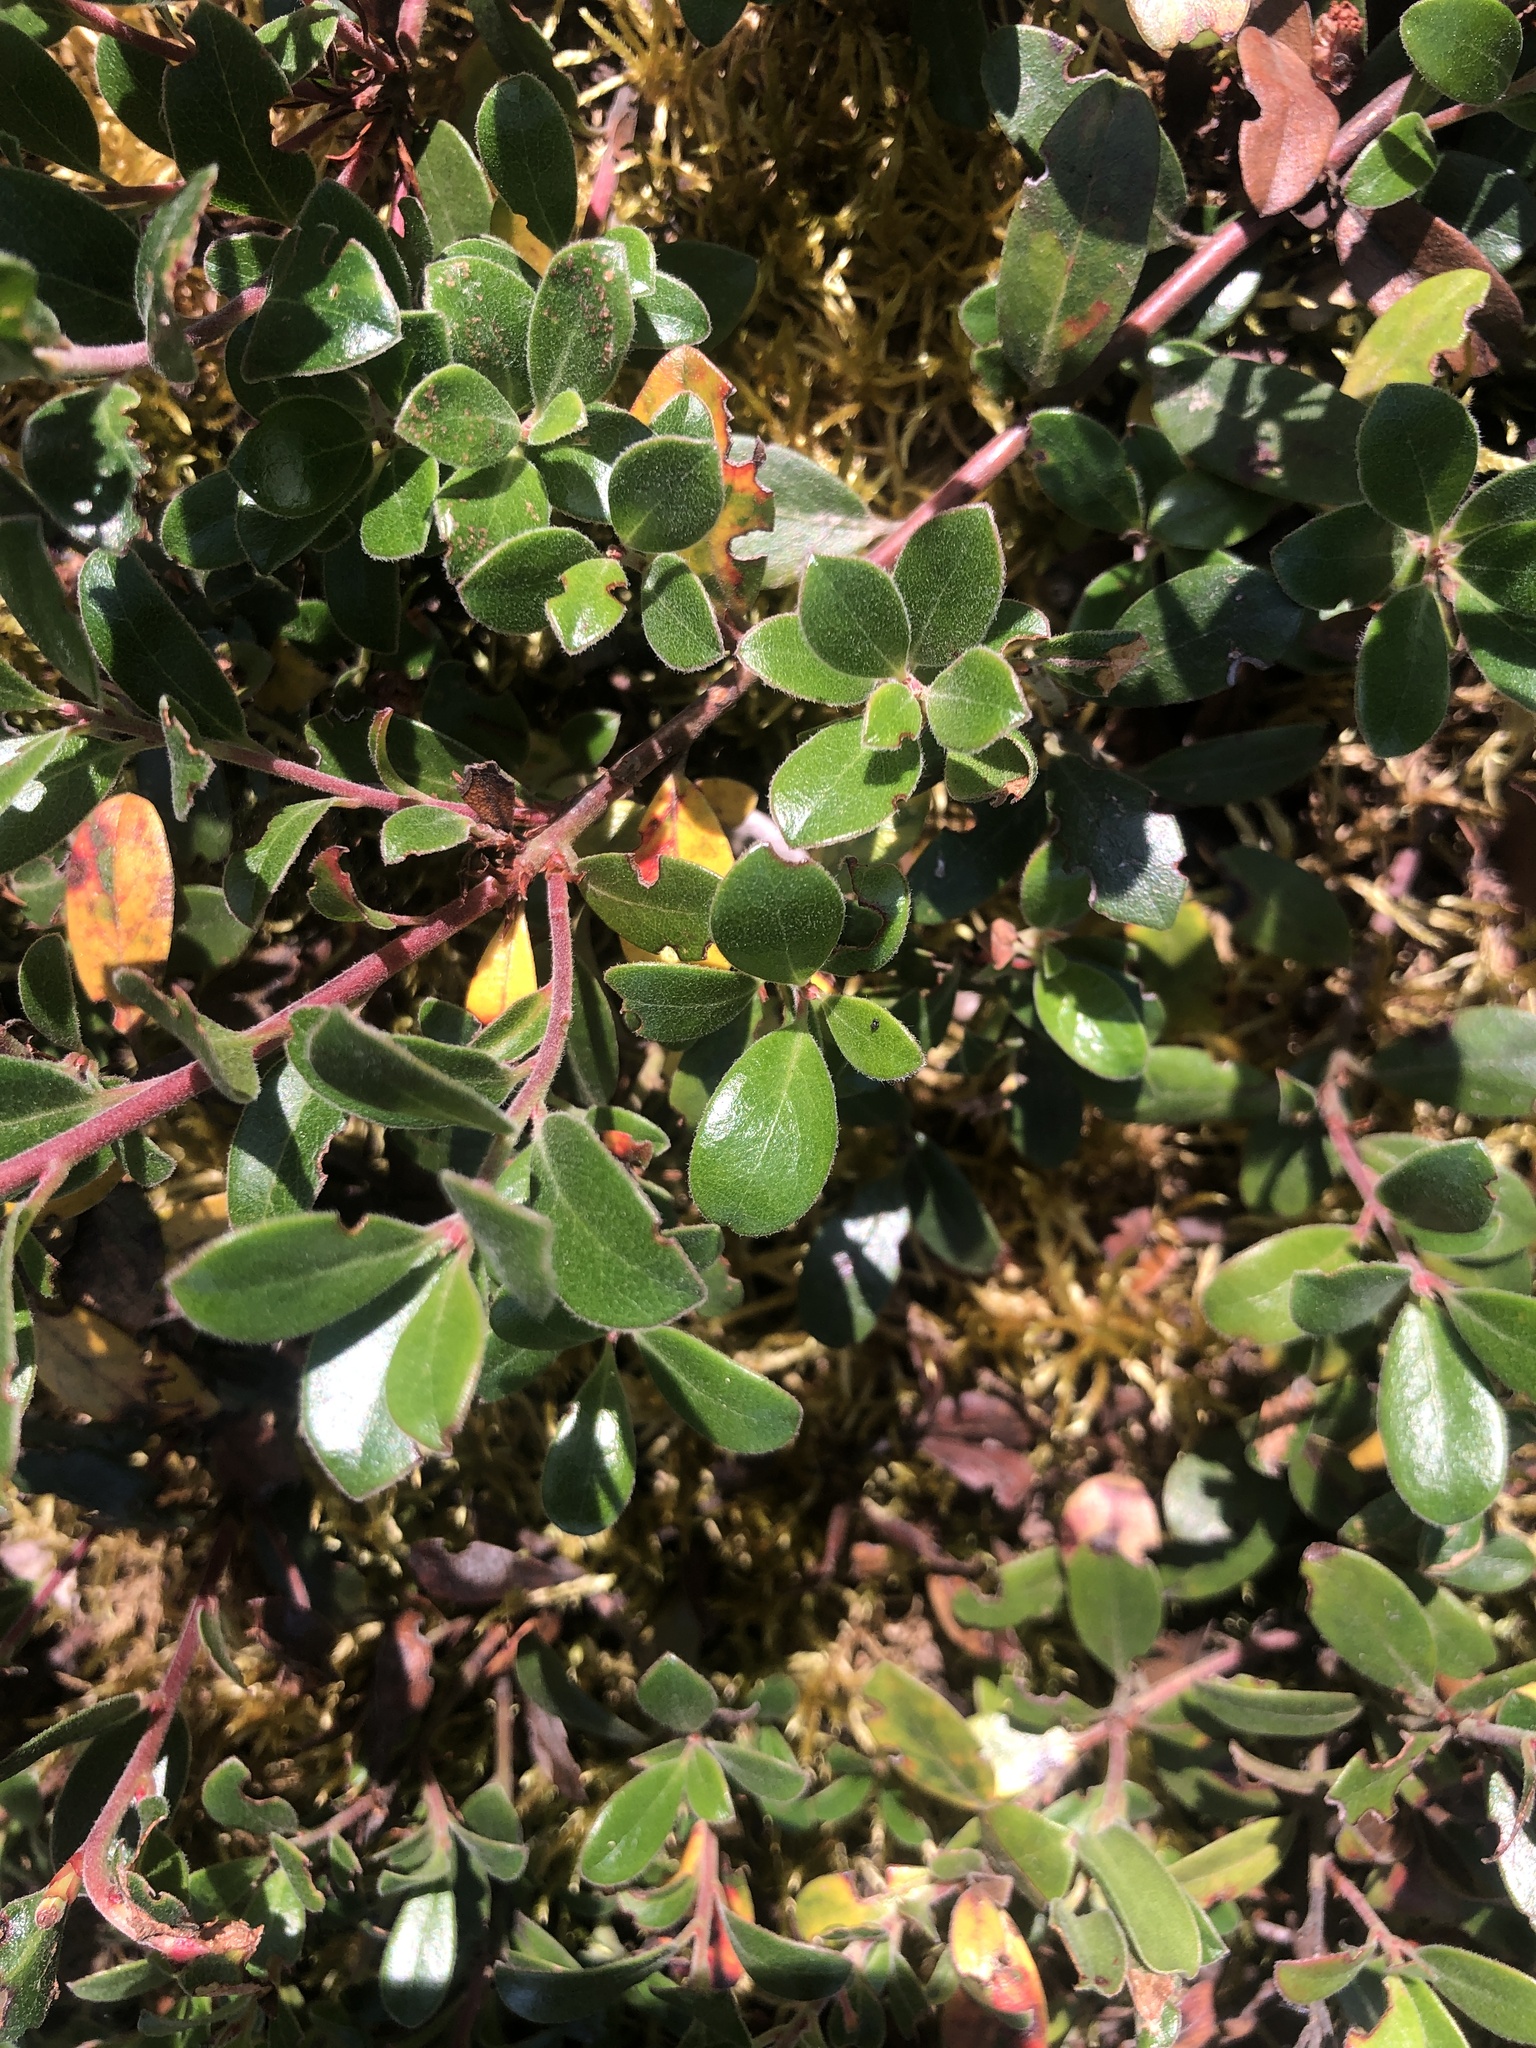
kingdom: Plantae
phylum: Tracheophyta
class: Magnoliopsida
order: Ericales
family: Ericaceae
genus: Arctostaphylos
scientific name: Arctostaphylos uva-ursi
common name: Bearberry
